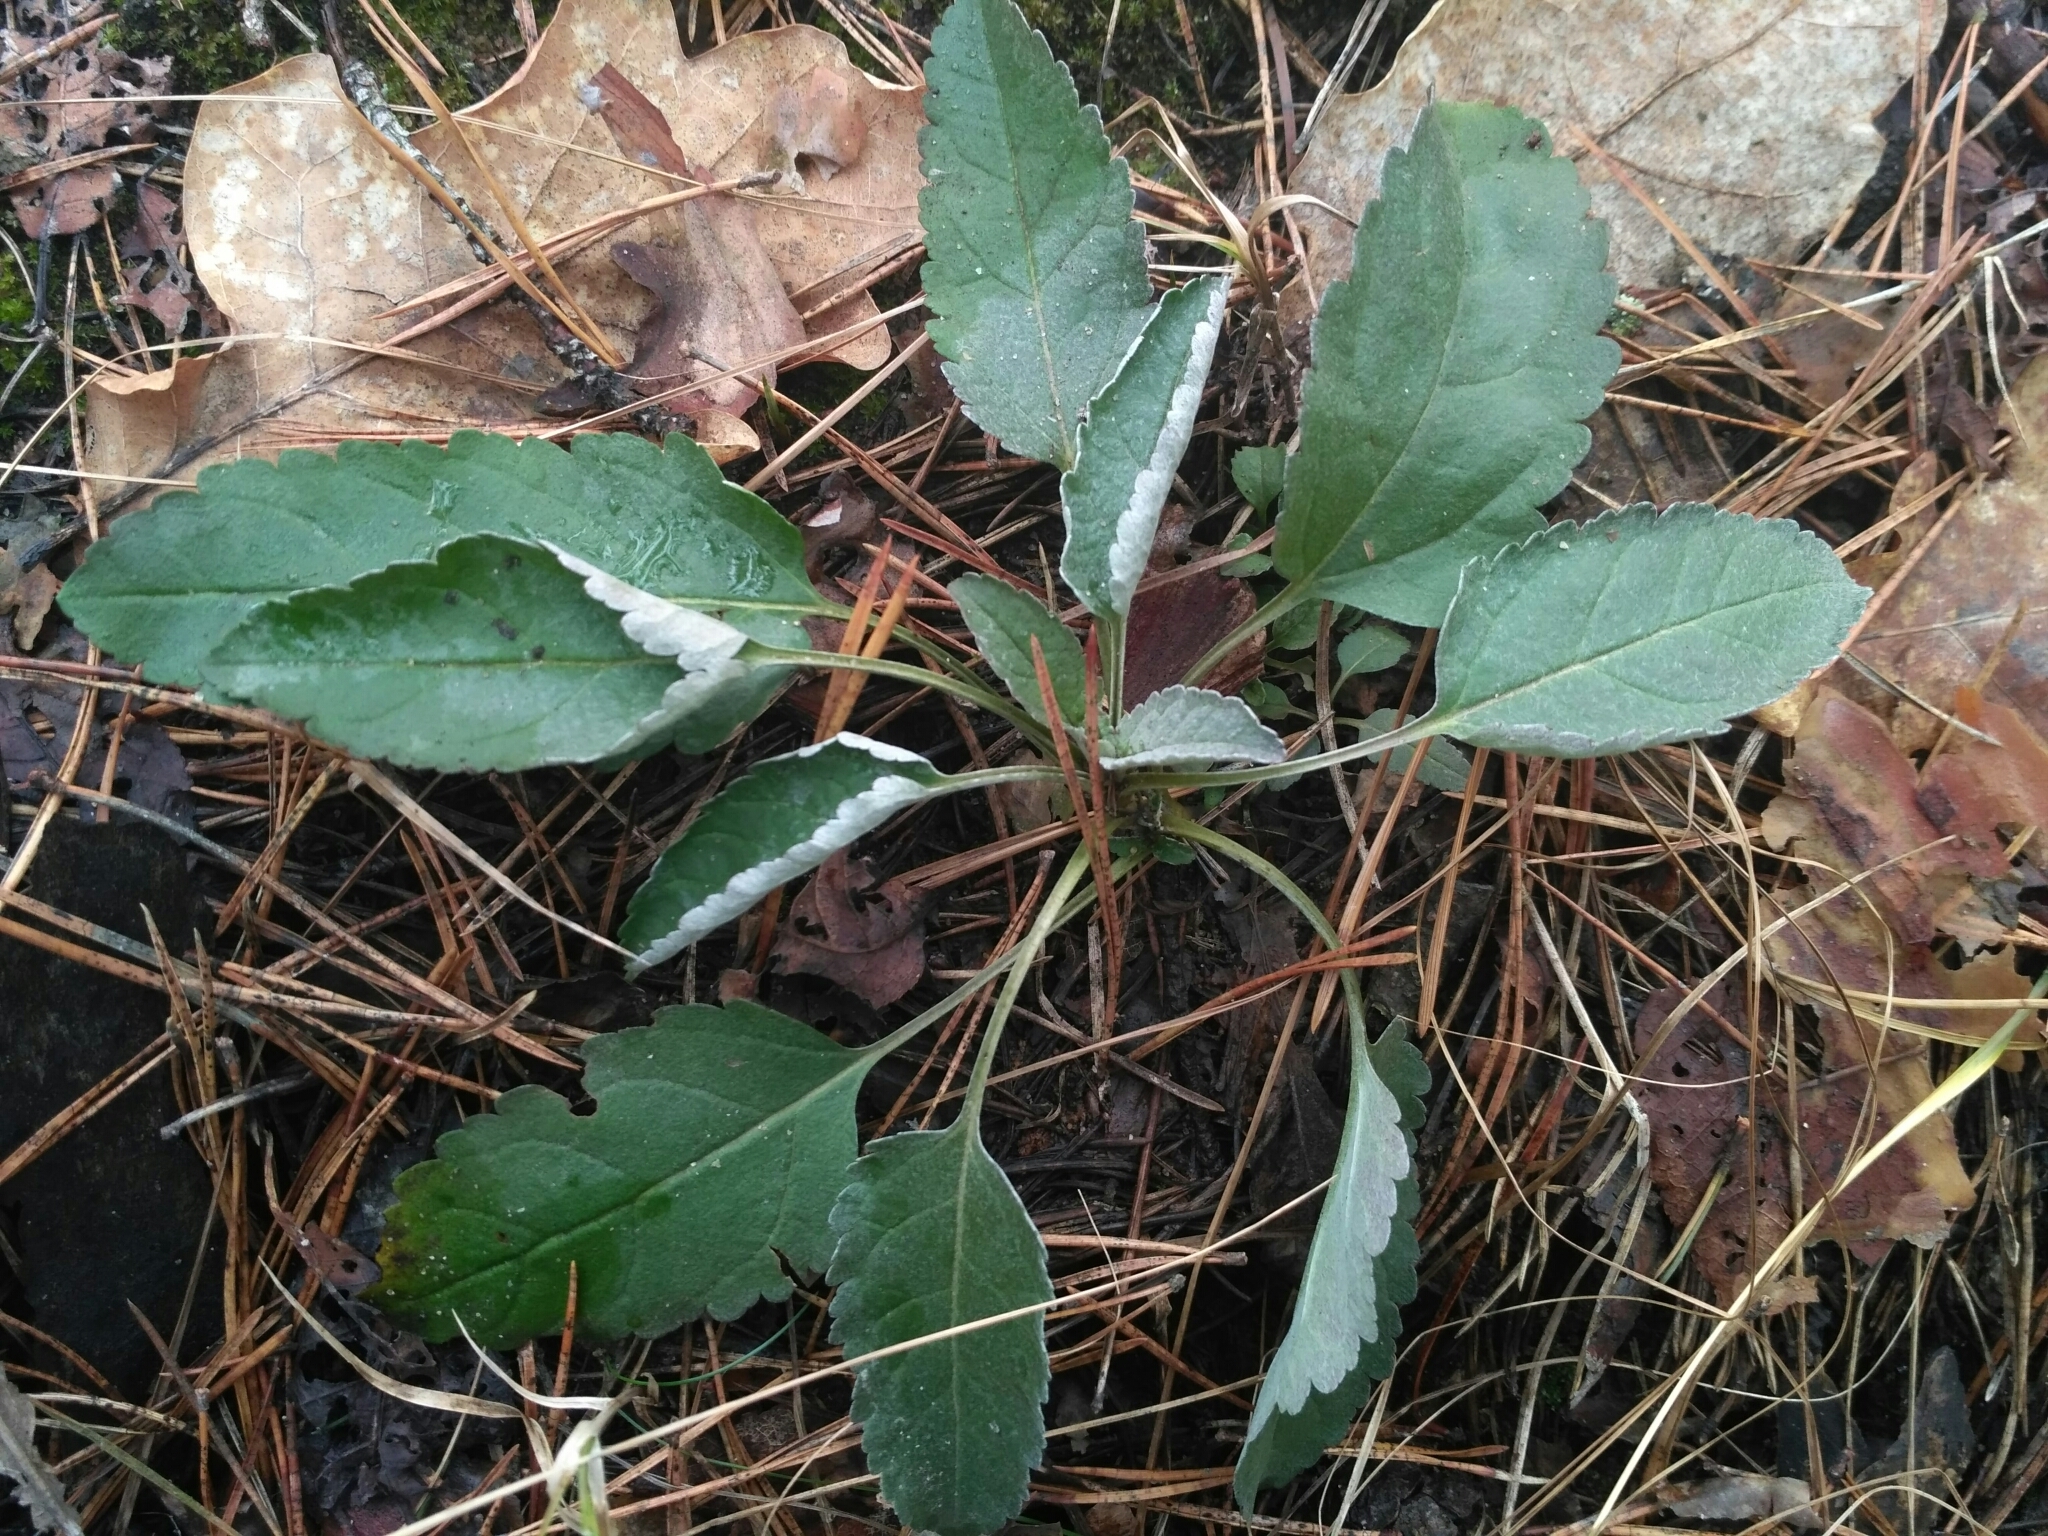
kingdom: Plantae
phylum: Tracheophyta
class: Magnoliopsida
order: Lamiales
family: Plantaginaceae
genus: Veronica
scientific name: Veronica incana
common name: Silver speedwell
